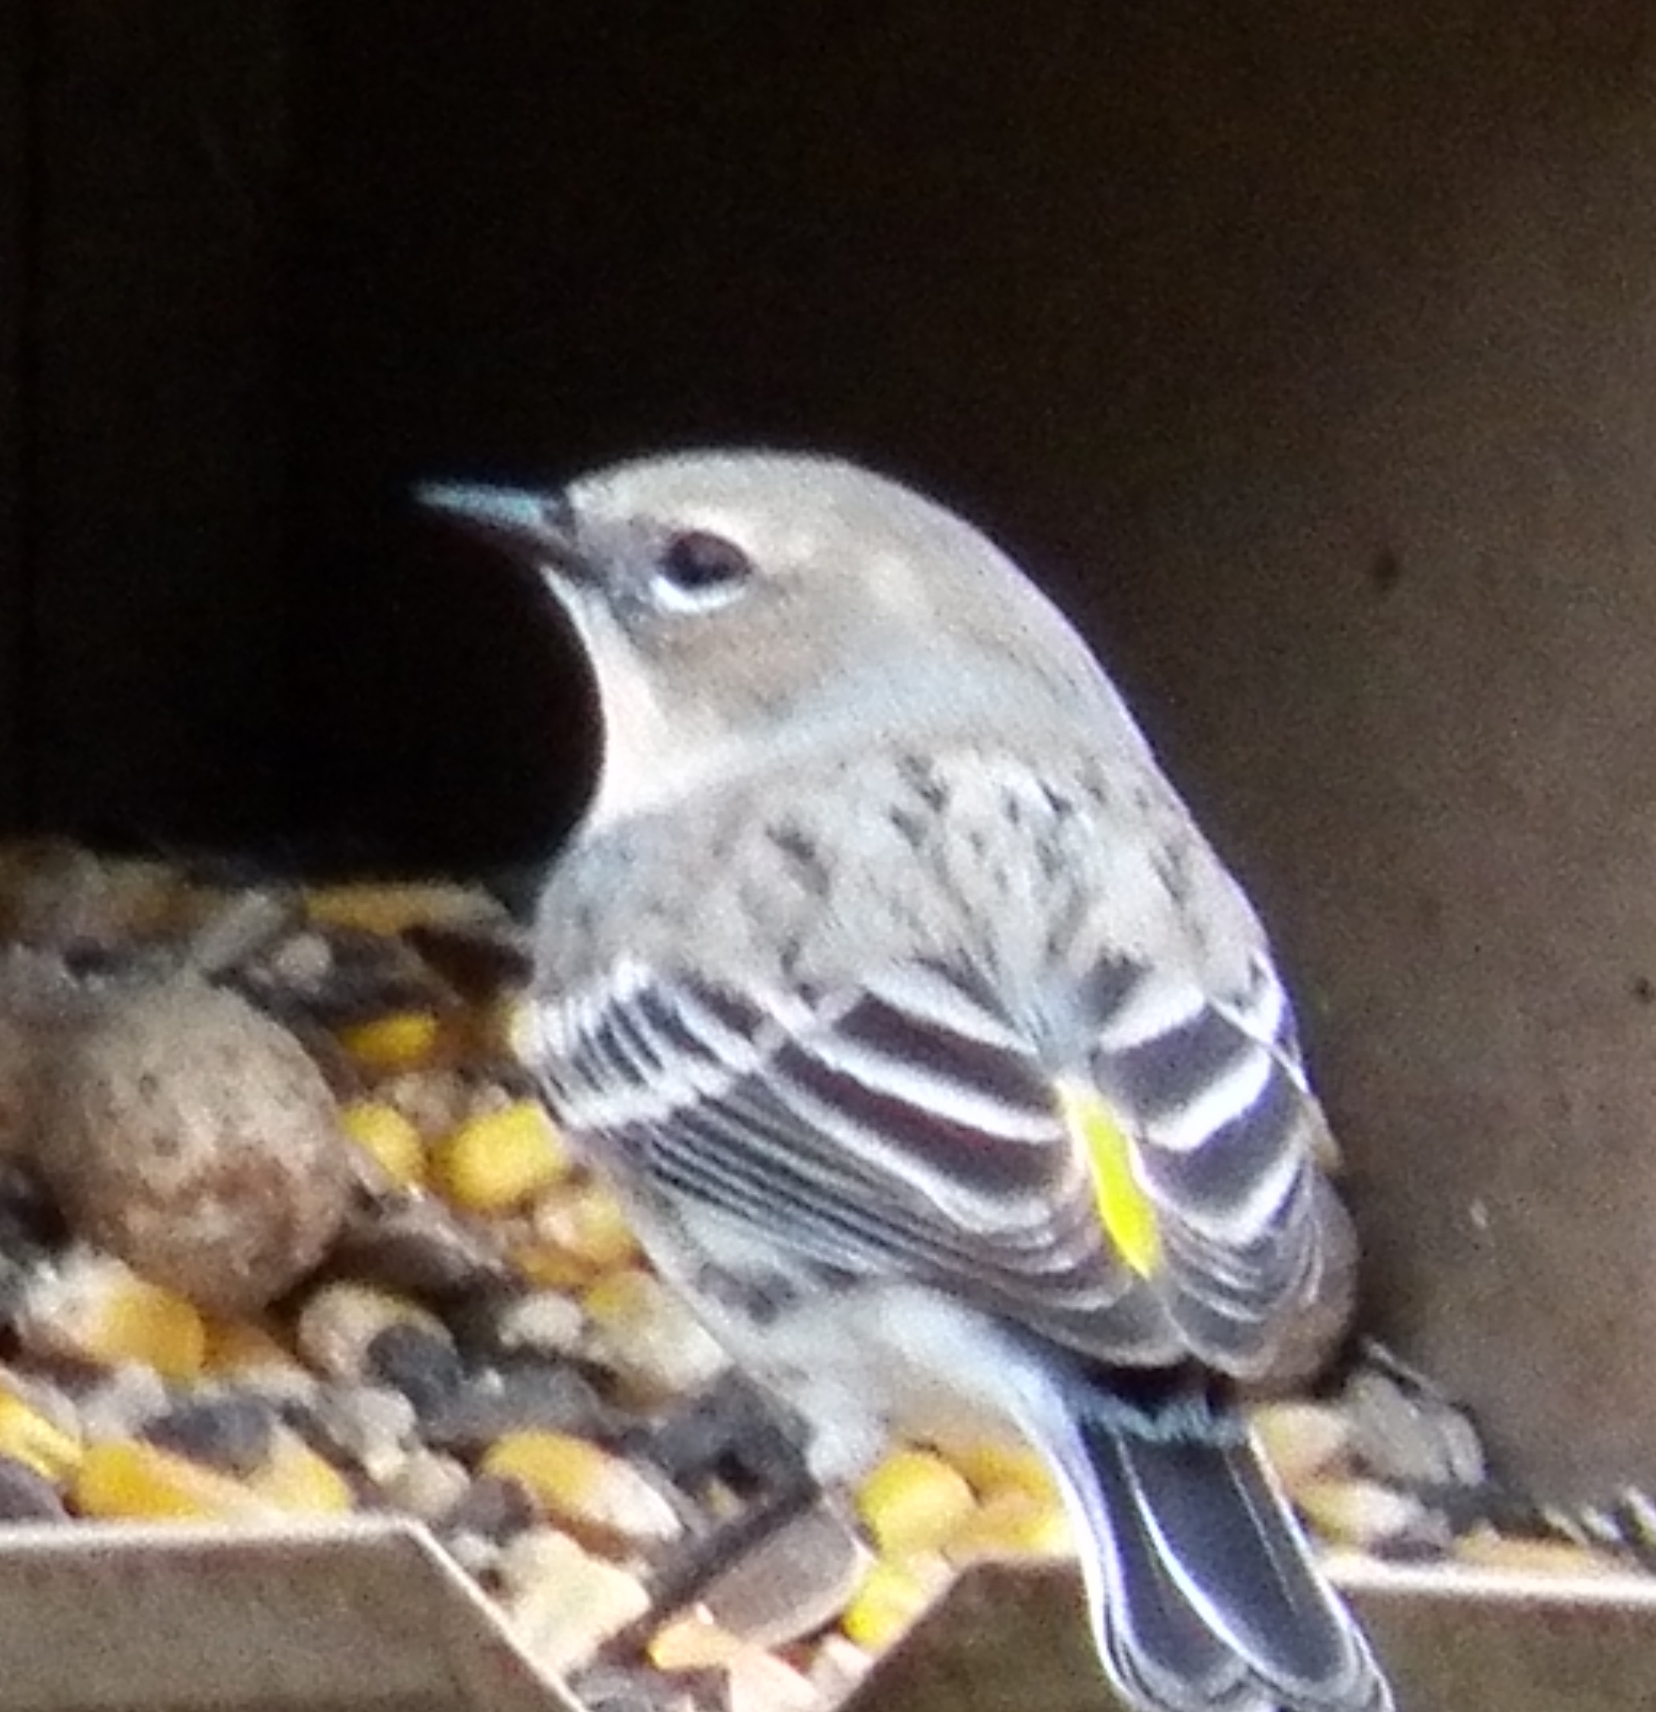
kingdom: Animalia
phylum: Chordata
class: Aves
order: Passeriformes
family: Parulidae
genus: Setophaga
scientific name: Setophaga coronata
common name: Myrtle warbler
